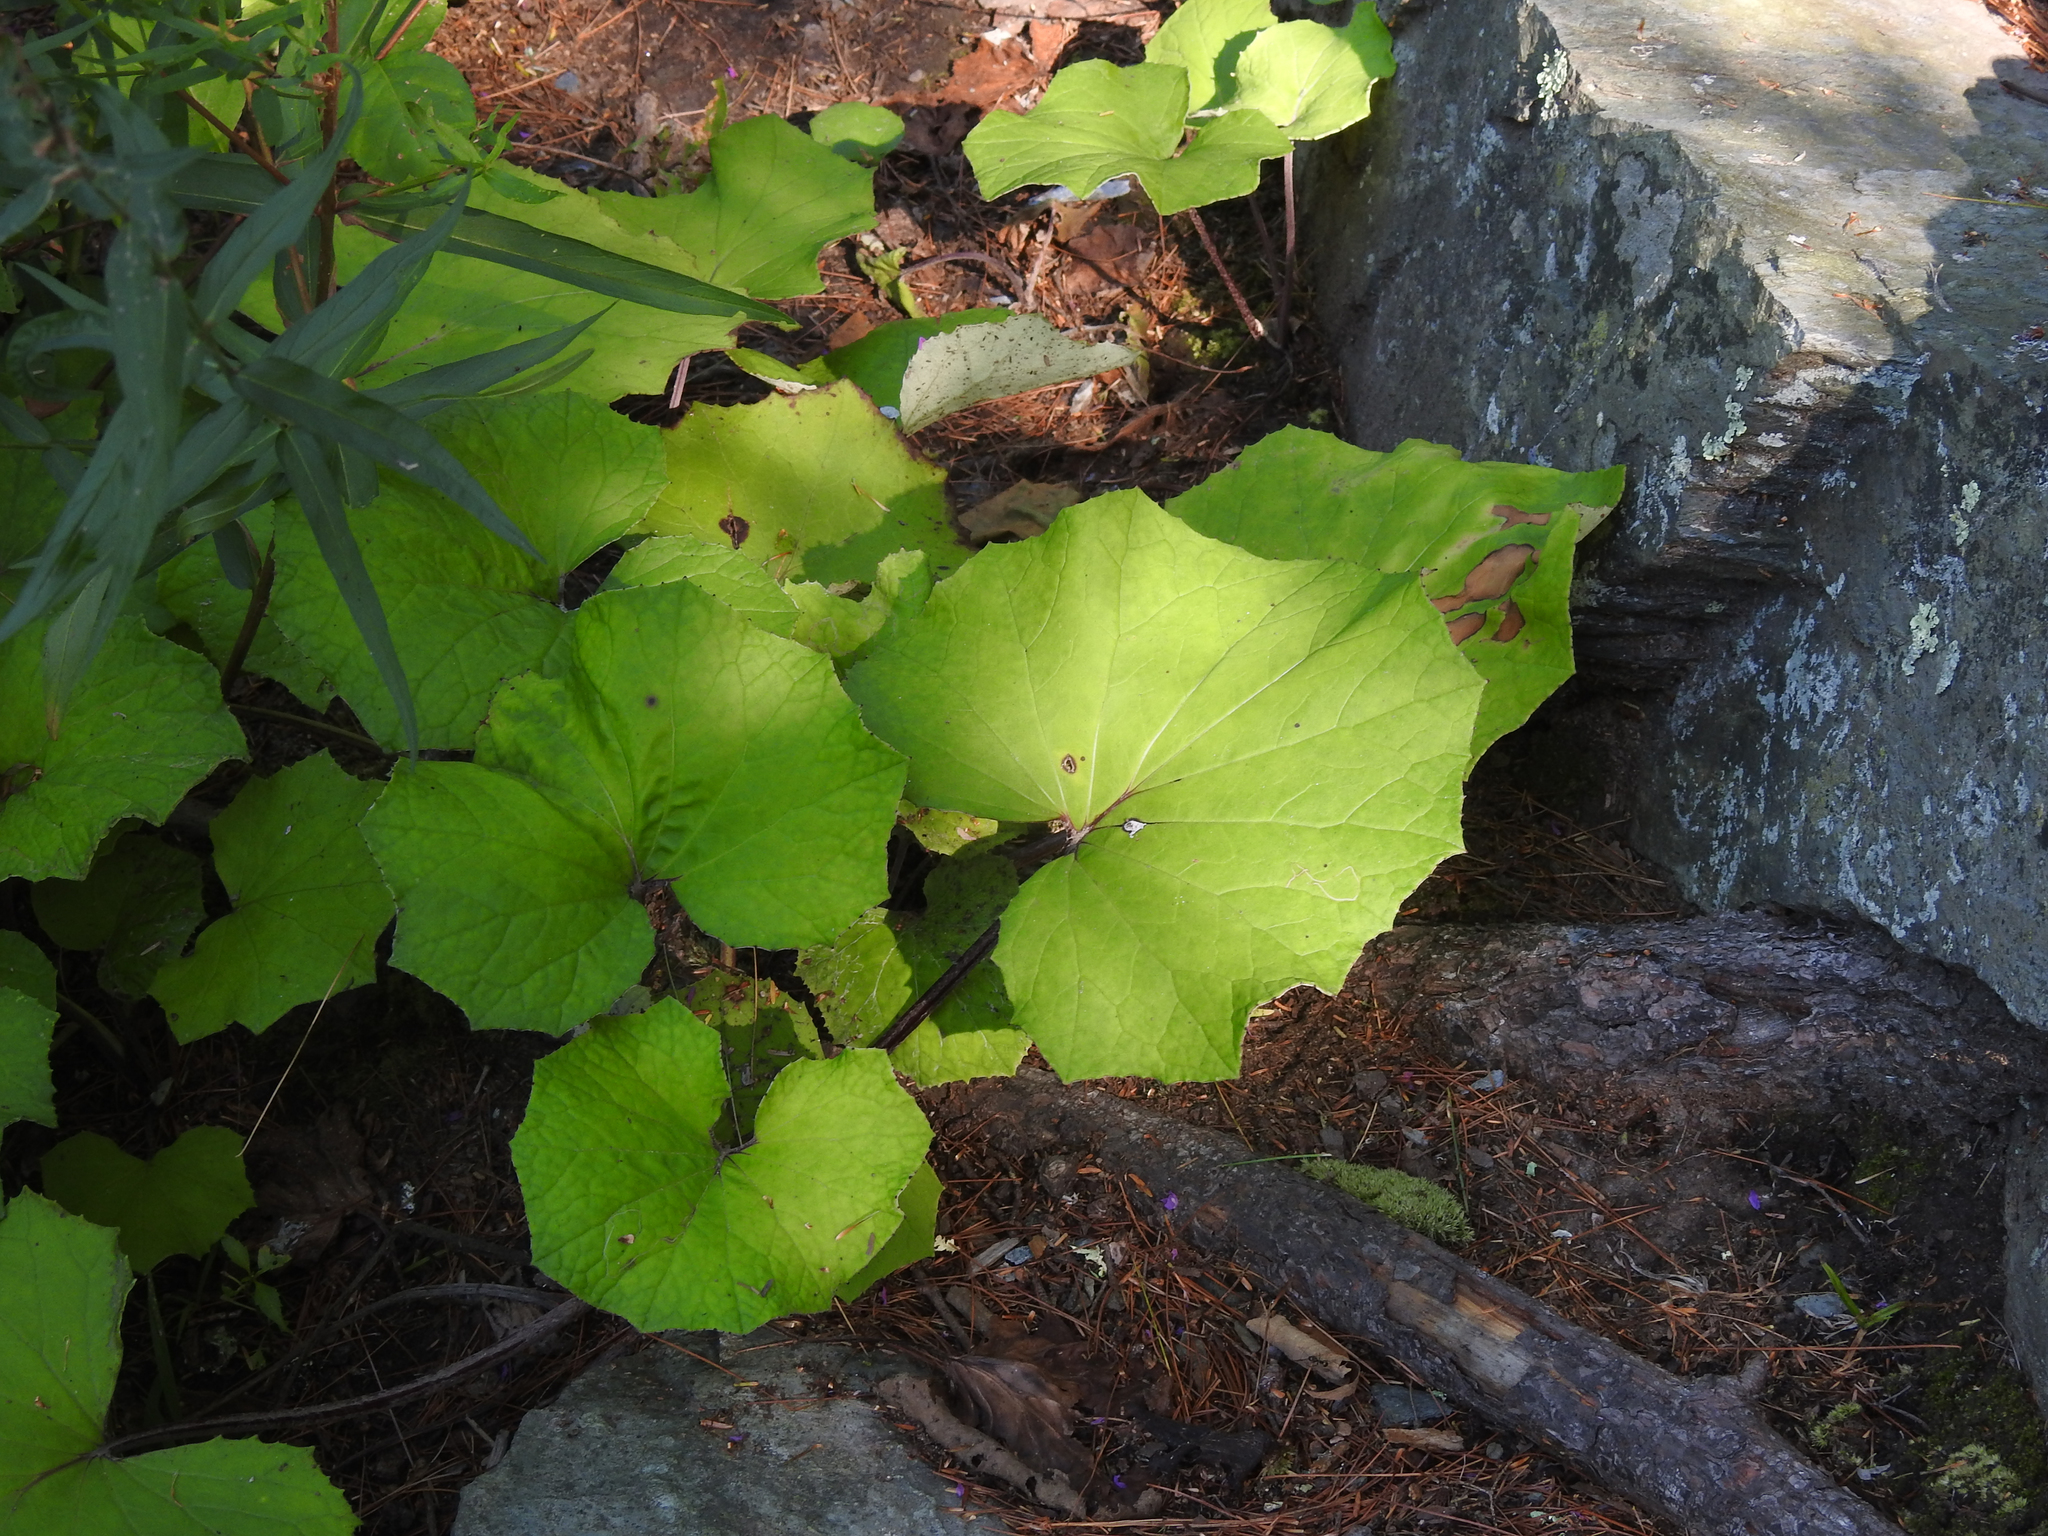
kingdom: Plantae
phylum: Tracheophyta
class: Magnoliopsida
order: Asterales
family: Asteraceae
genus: Tussilago
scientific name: Tussilago farfara
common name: Coltsfoot
